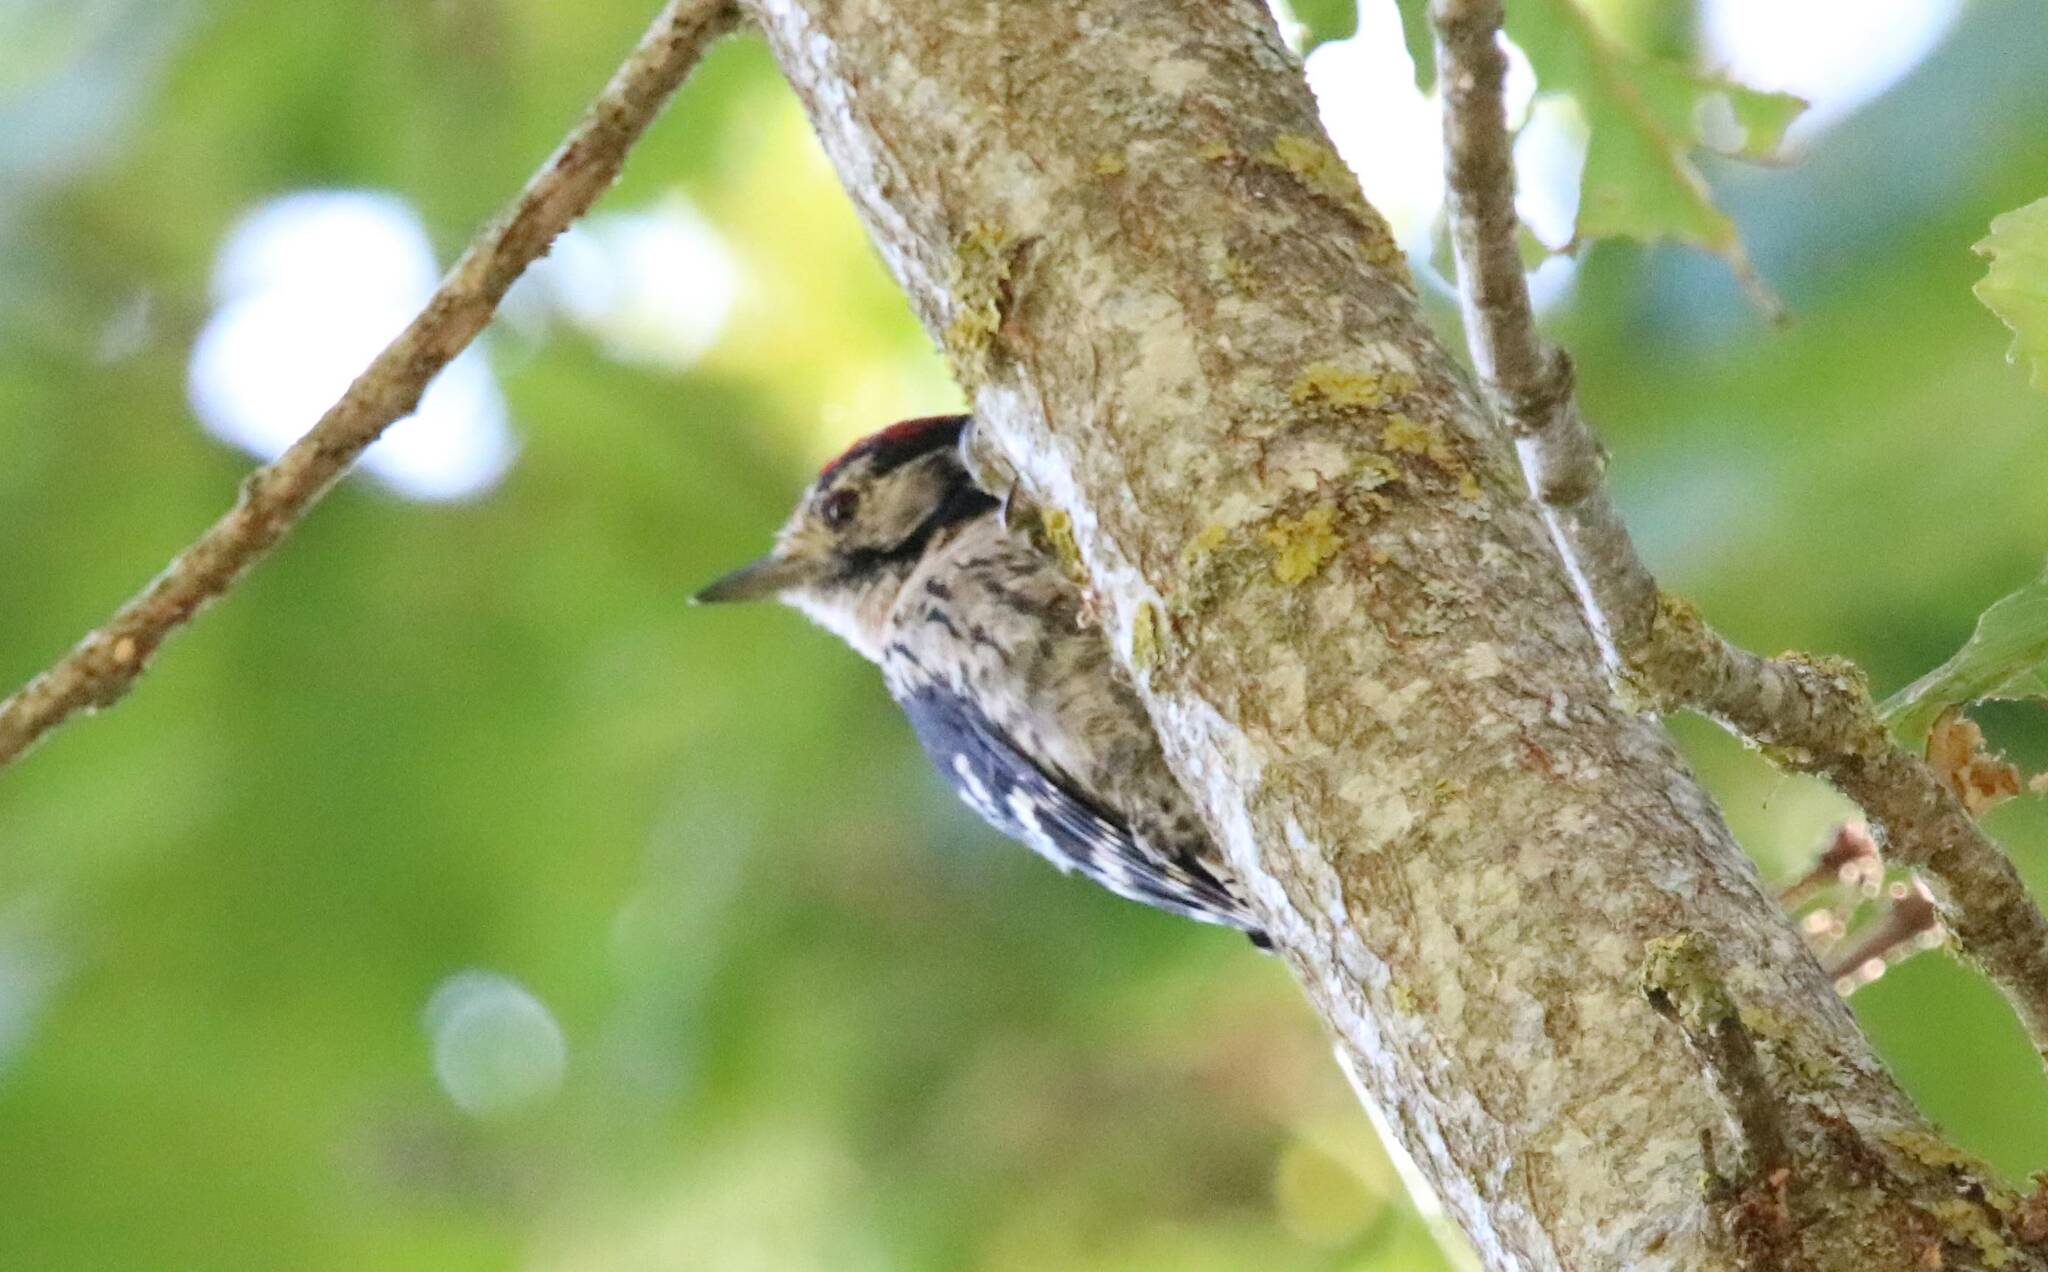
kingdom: Animalia
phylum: Chordata
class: Aves
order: Piciformes
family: Picidae
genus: Dryobates
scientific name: Dryobates minor
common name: Lesser spotted woodpecker
